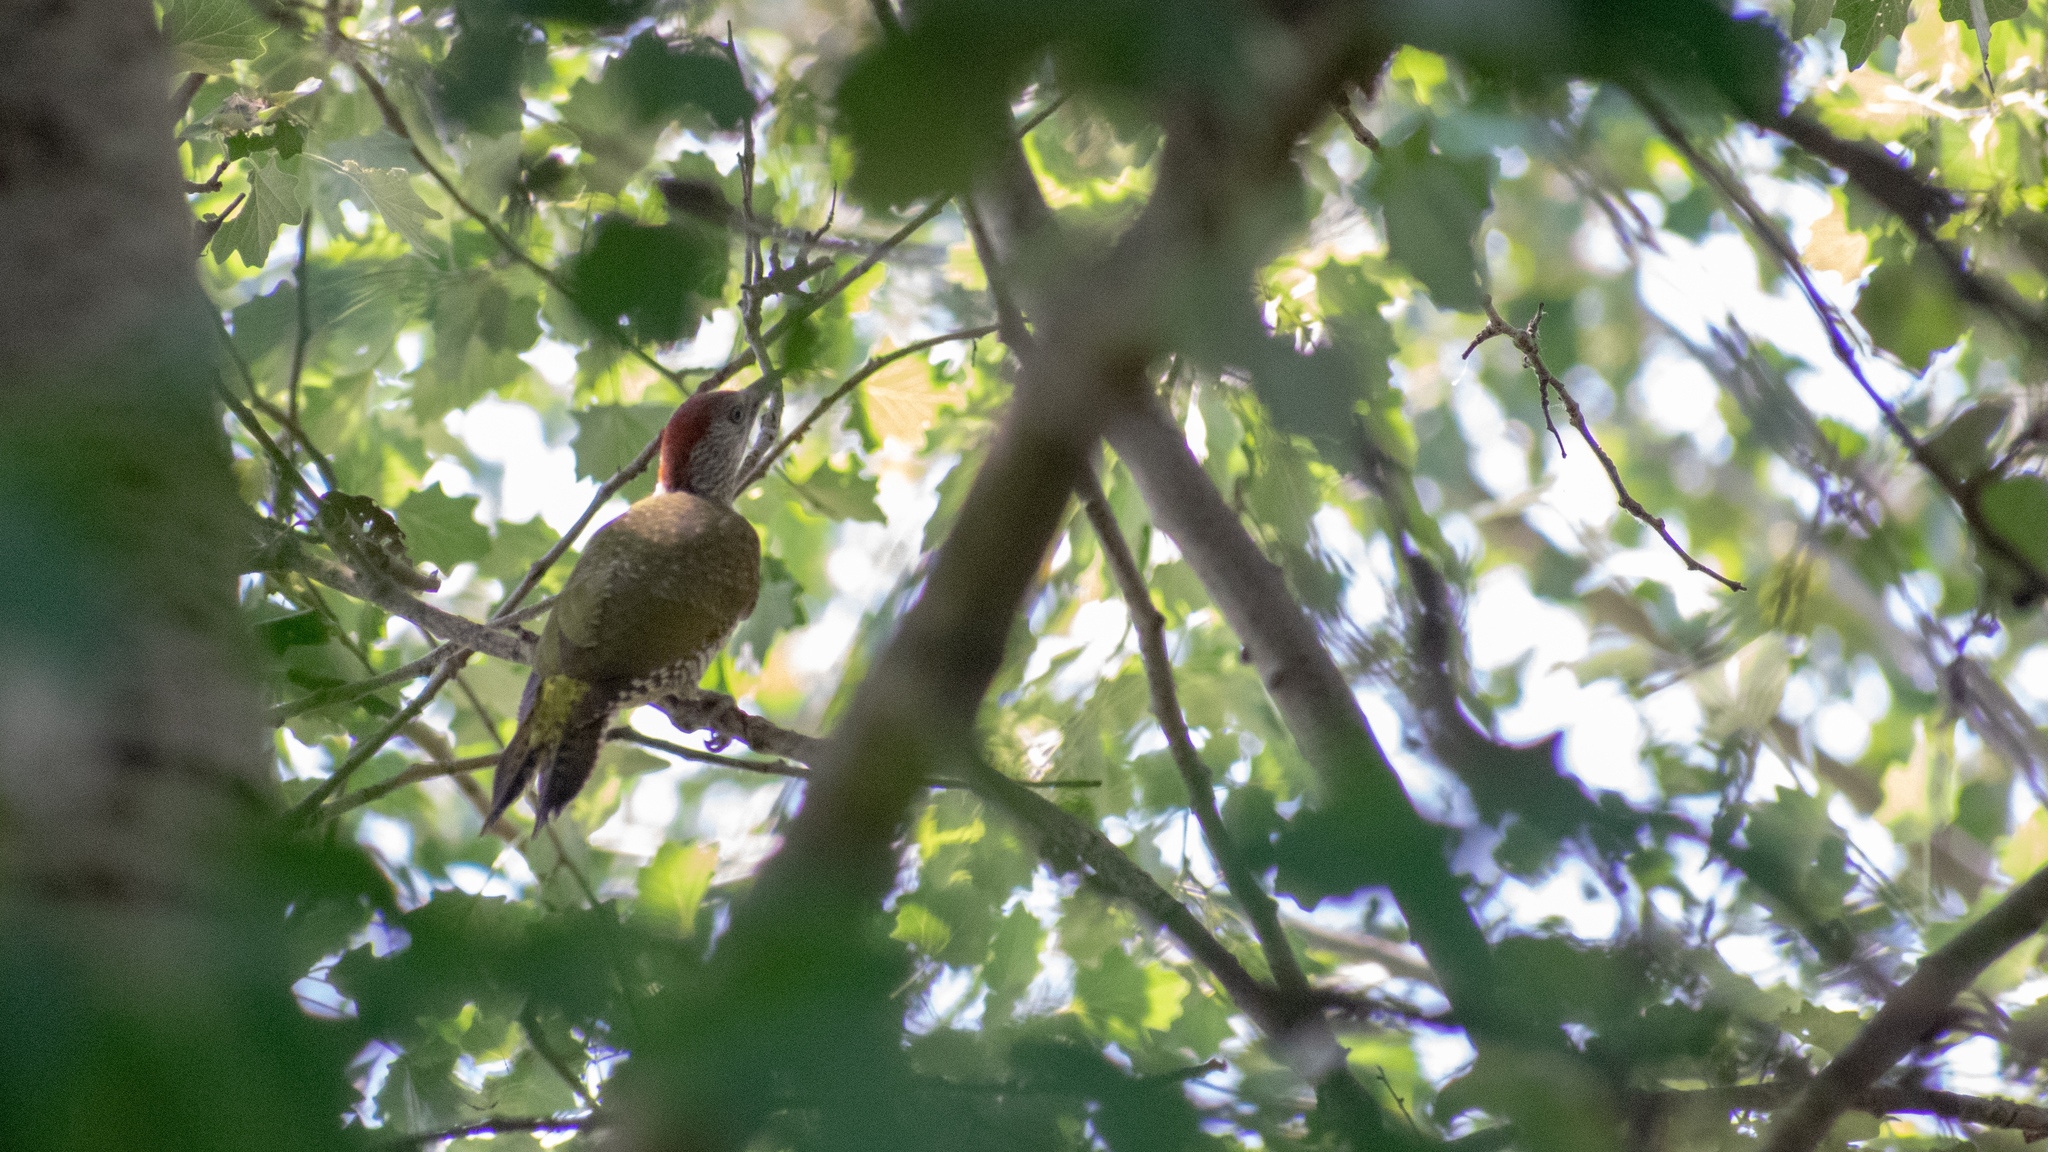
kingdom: Animalia
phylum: Chordata
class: Aves
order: Piciformes
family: Picidae
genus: Picus
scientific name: Picus viridis
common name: European green woodpecker
